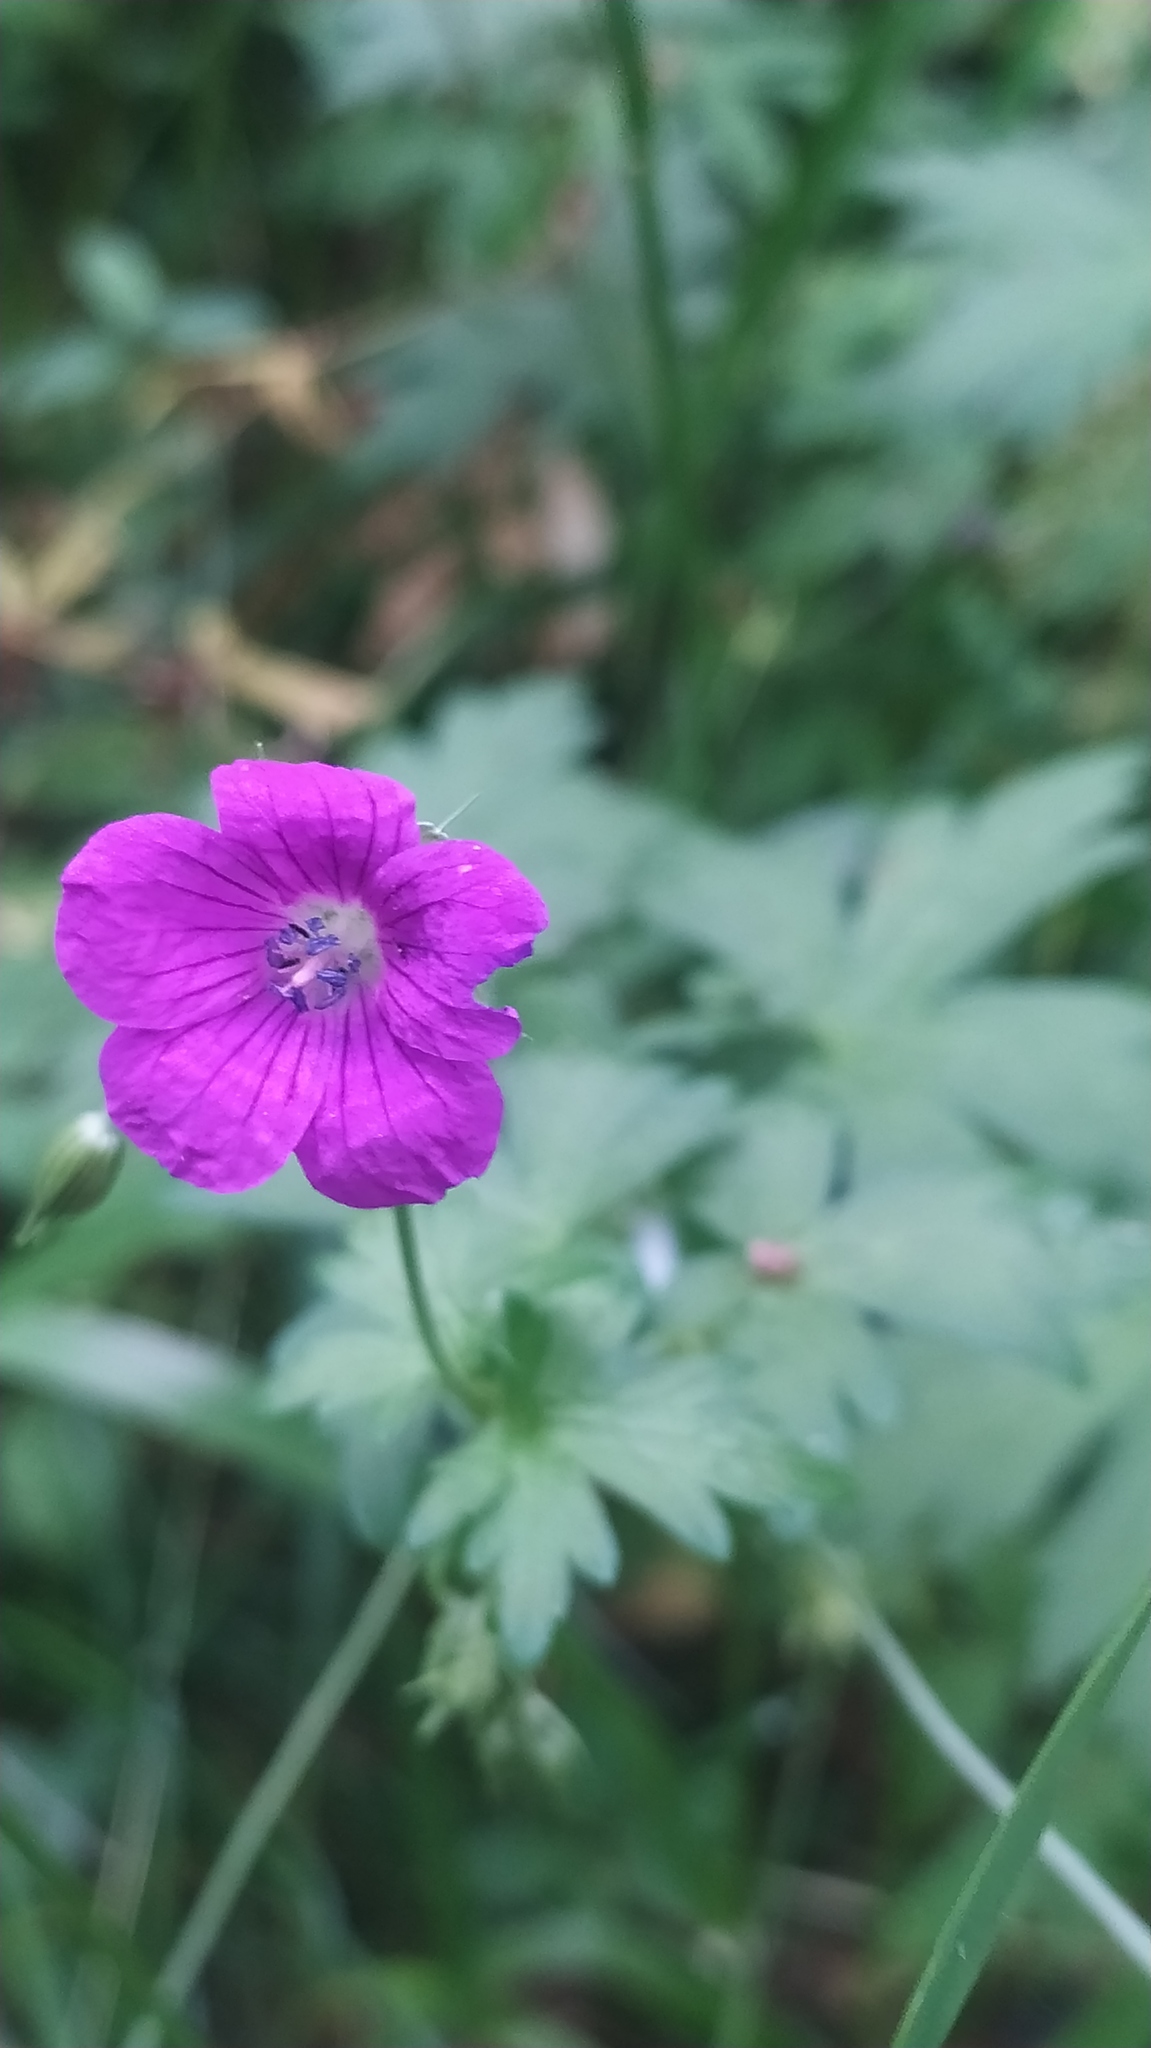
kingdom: Plantae
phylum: Tracheophyta
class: Magnoliopsida
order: Geraniales
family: Geraniaceae
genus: Geranium
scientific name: Geranium palustre
